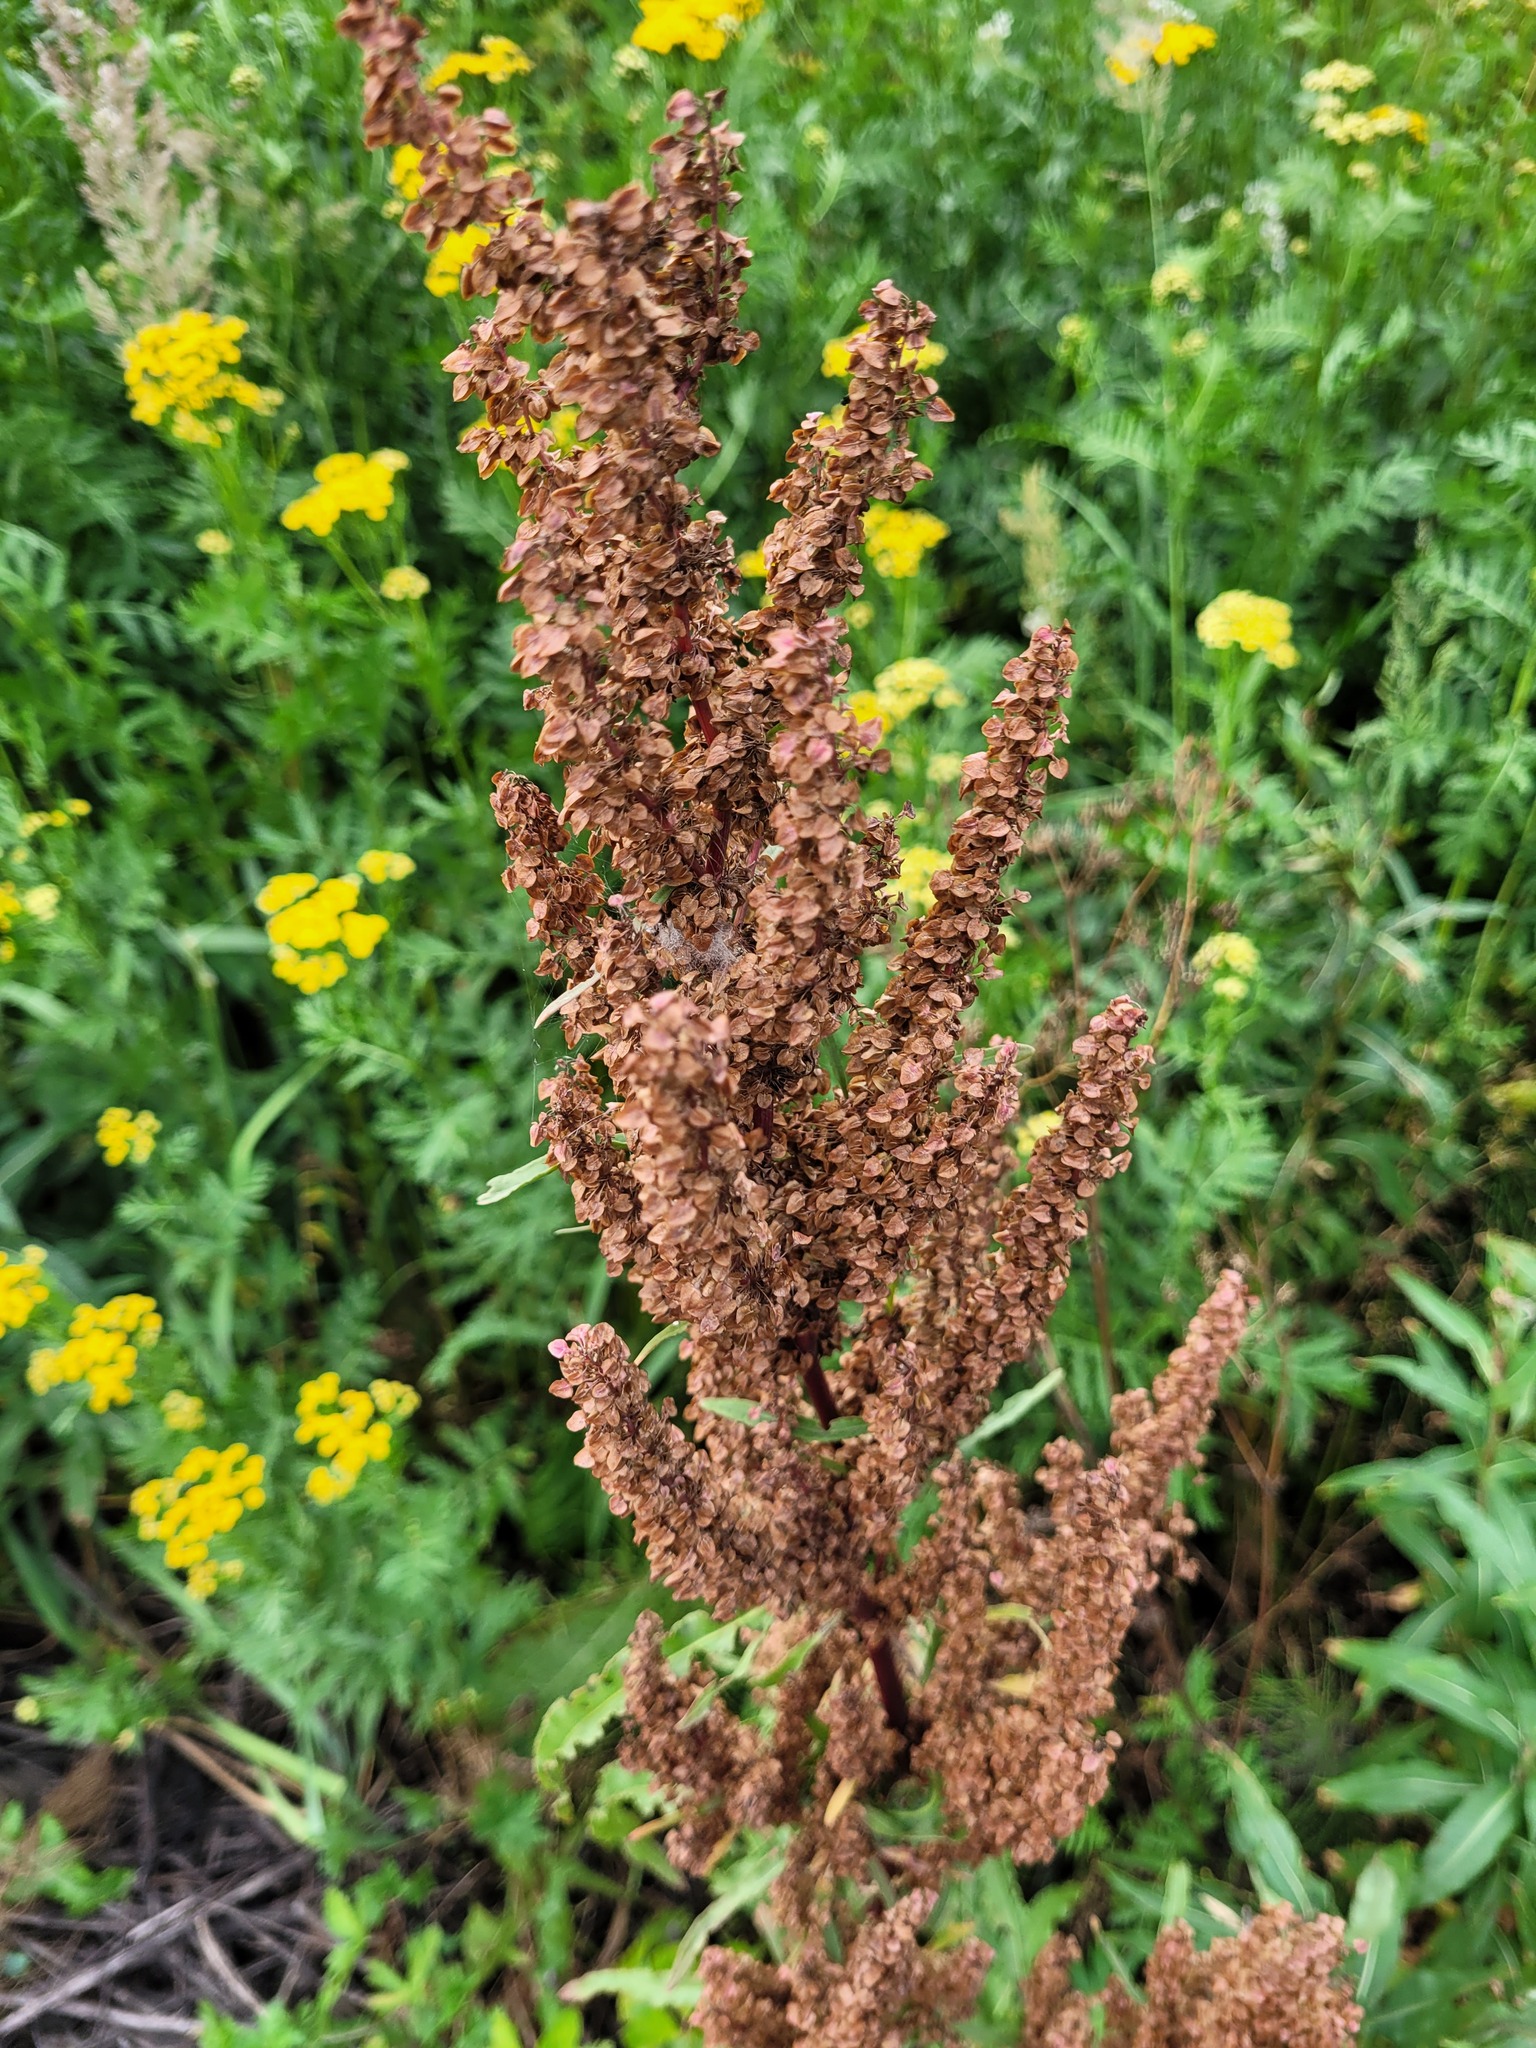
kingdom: Plantae
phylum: Tracheophyta
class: Magnoliopsida
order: Caryophyllales
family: Polygonaceae
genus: Rumex
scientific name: Rumex pseudonatronatus
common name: Field dock
